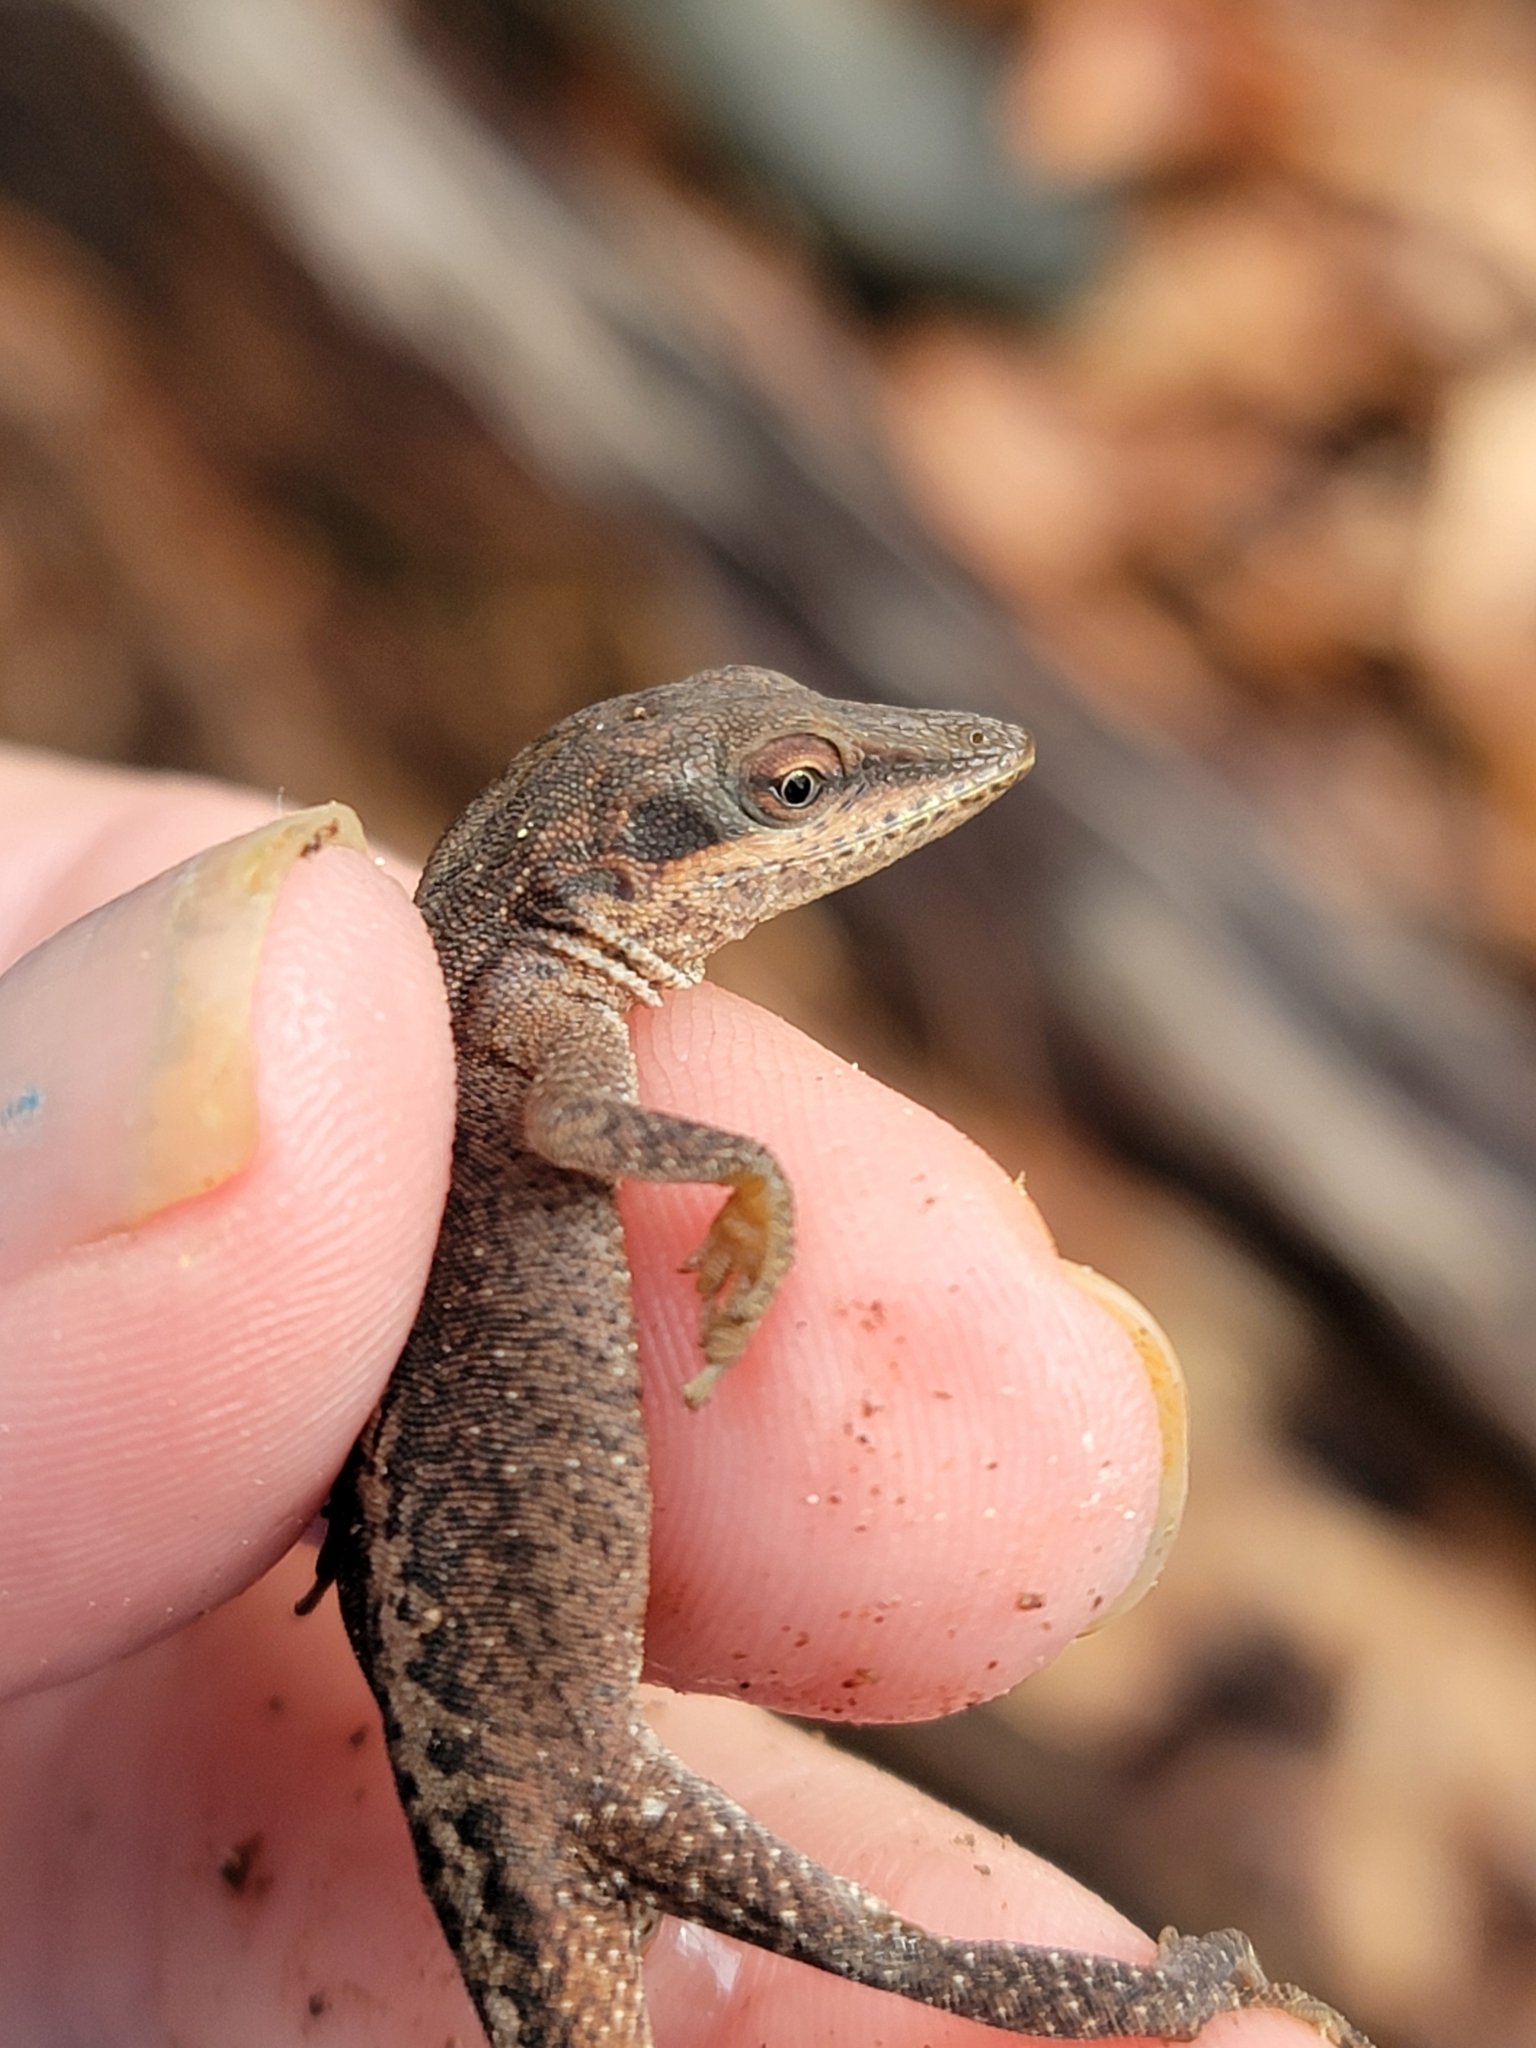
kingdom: Animalia
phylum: Chordata
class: Squamata
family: Dactyloidae
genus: Anolis
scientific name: Anolis carolinensis
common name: Green anole
